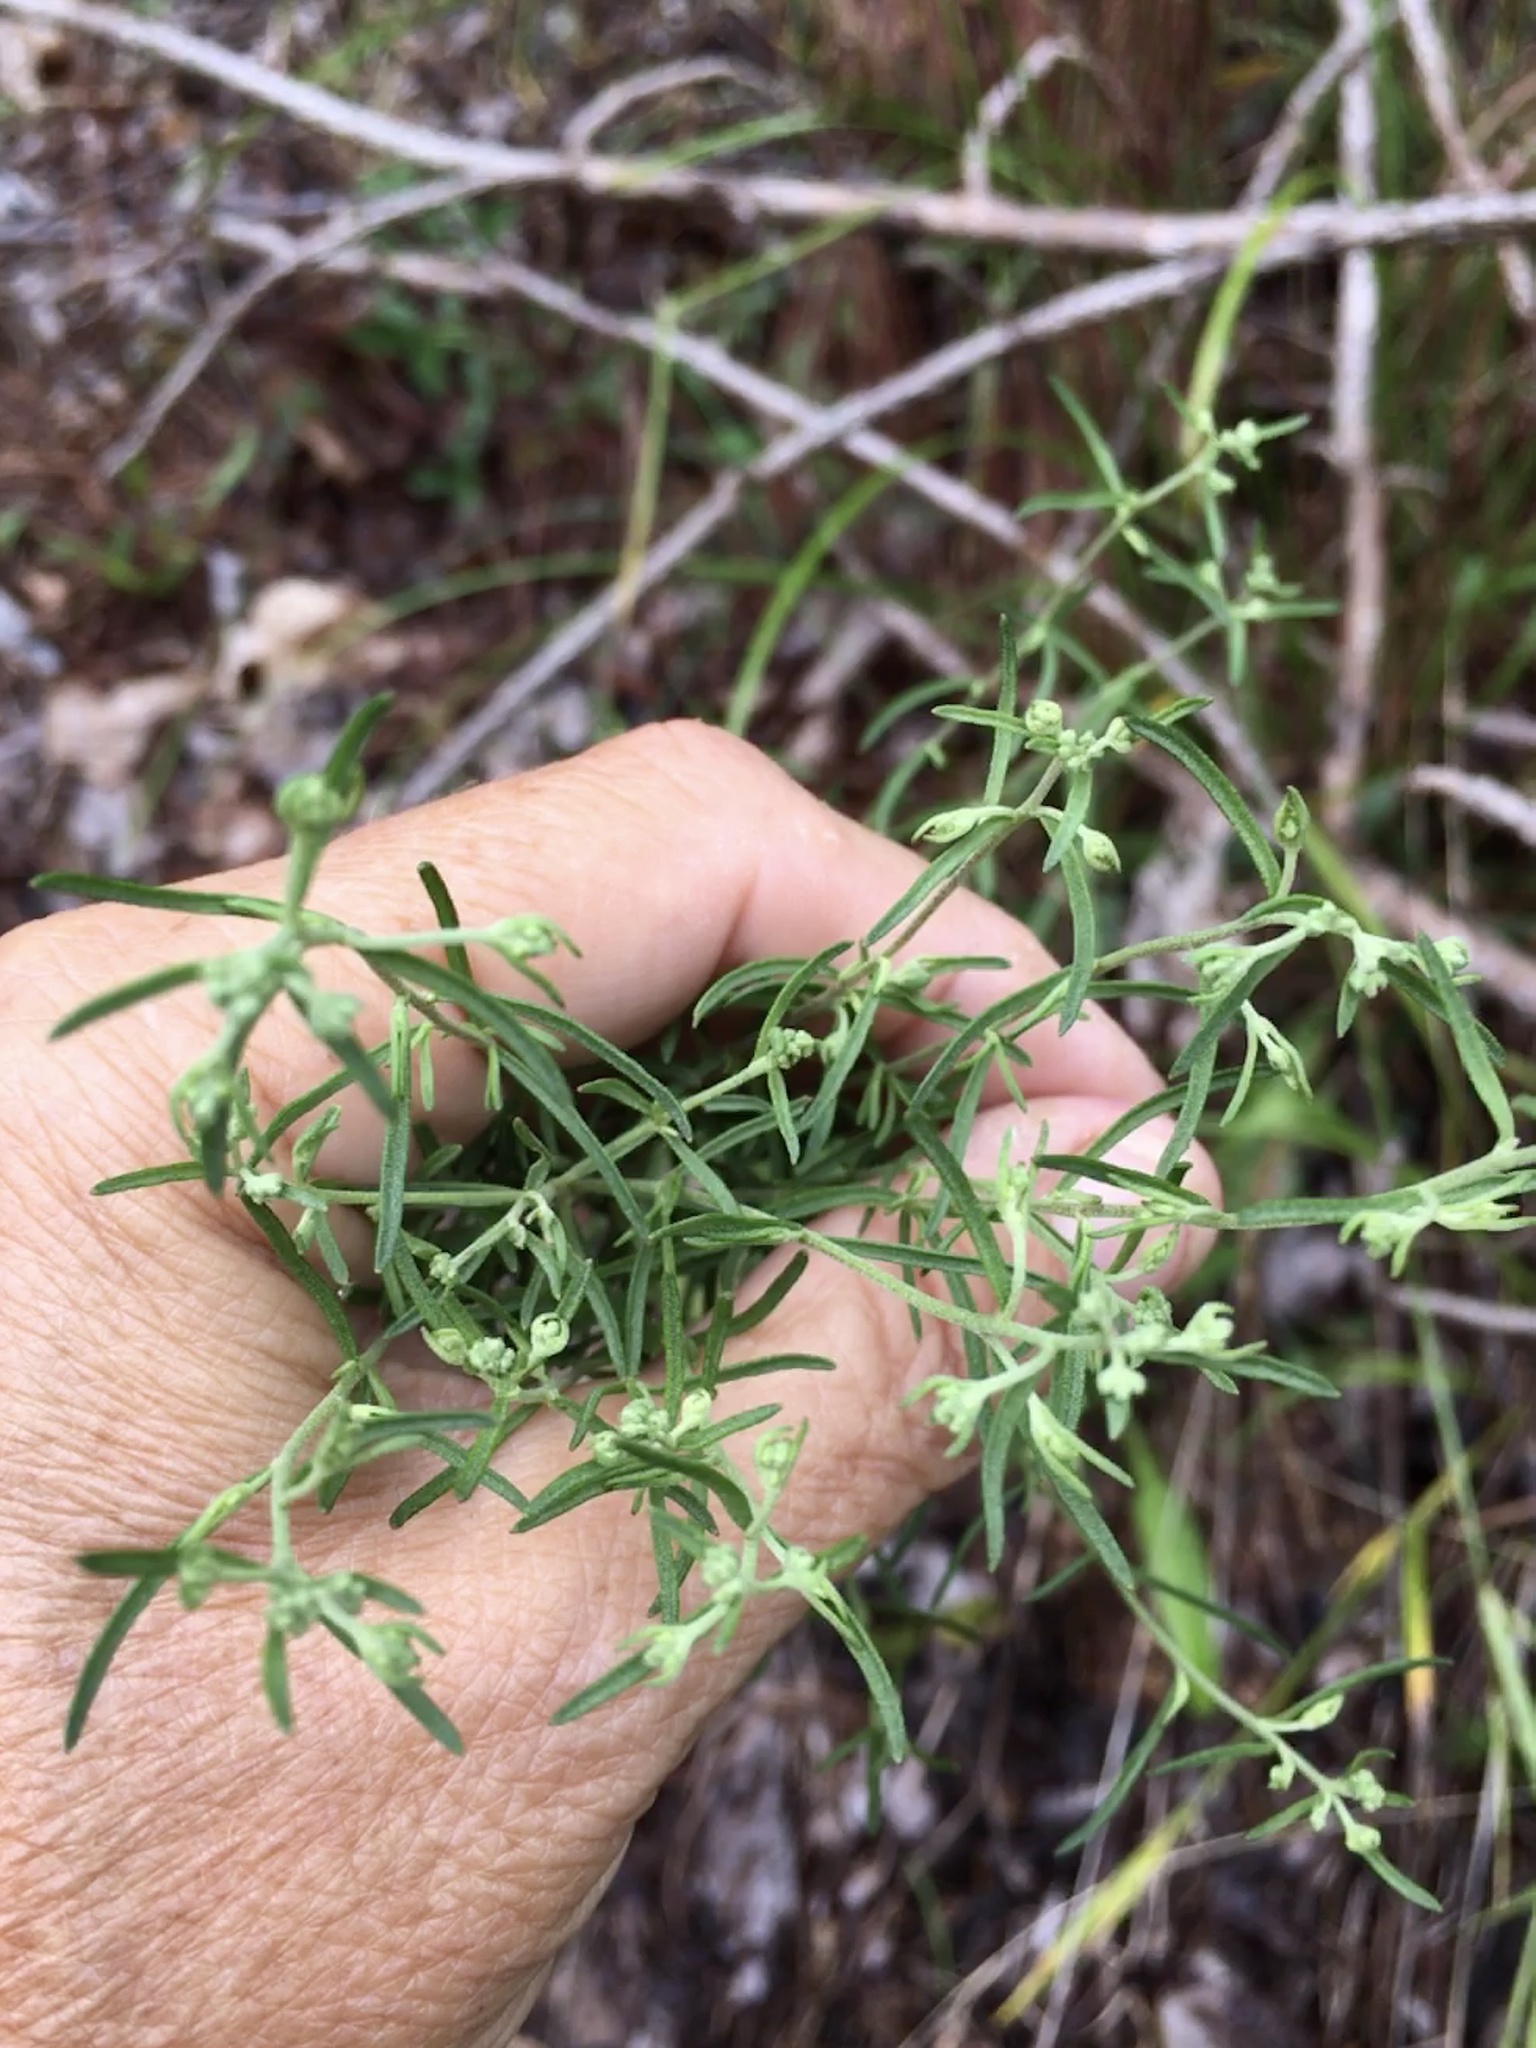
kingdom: Plantae
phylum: Tracheophyta
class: Magnoliopsida
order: Asterales
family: Asteraceae
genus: Eupatorium
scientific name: Eupatorium hyssopifolium
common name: Hyssop-leaf thoroughwort
